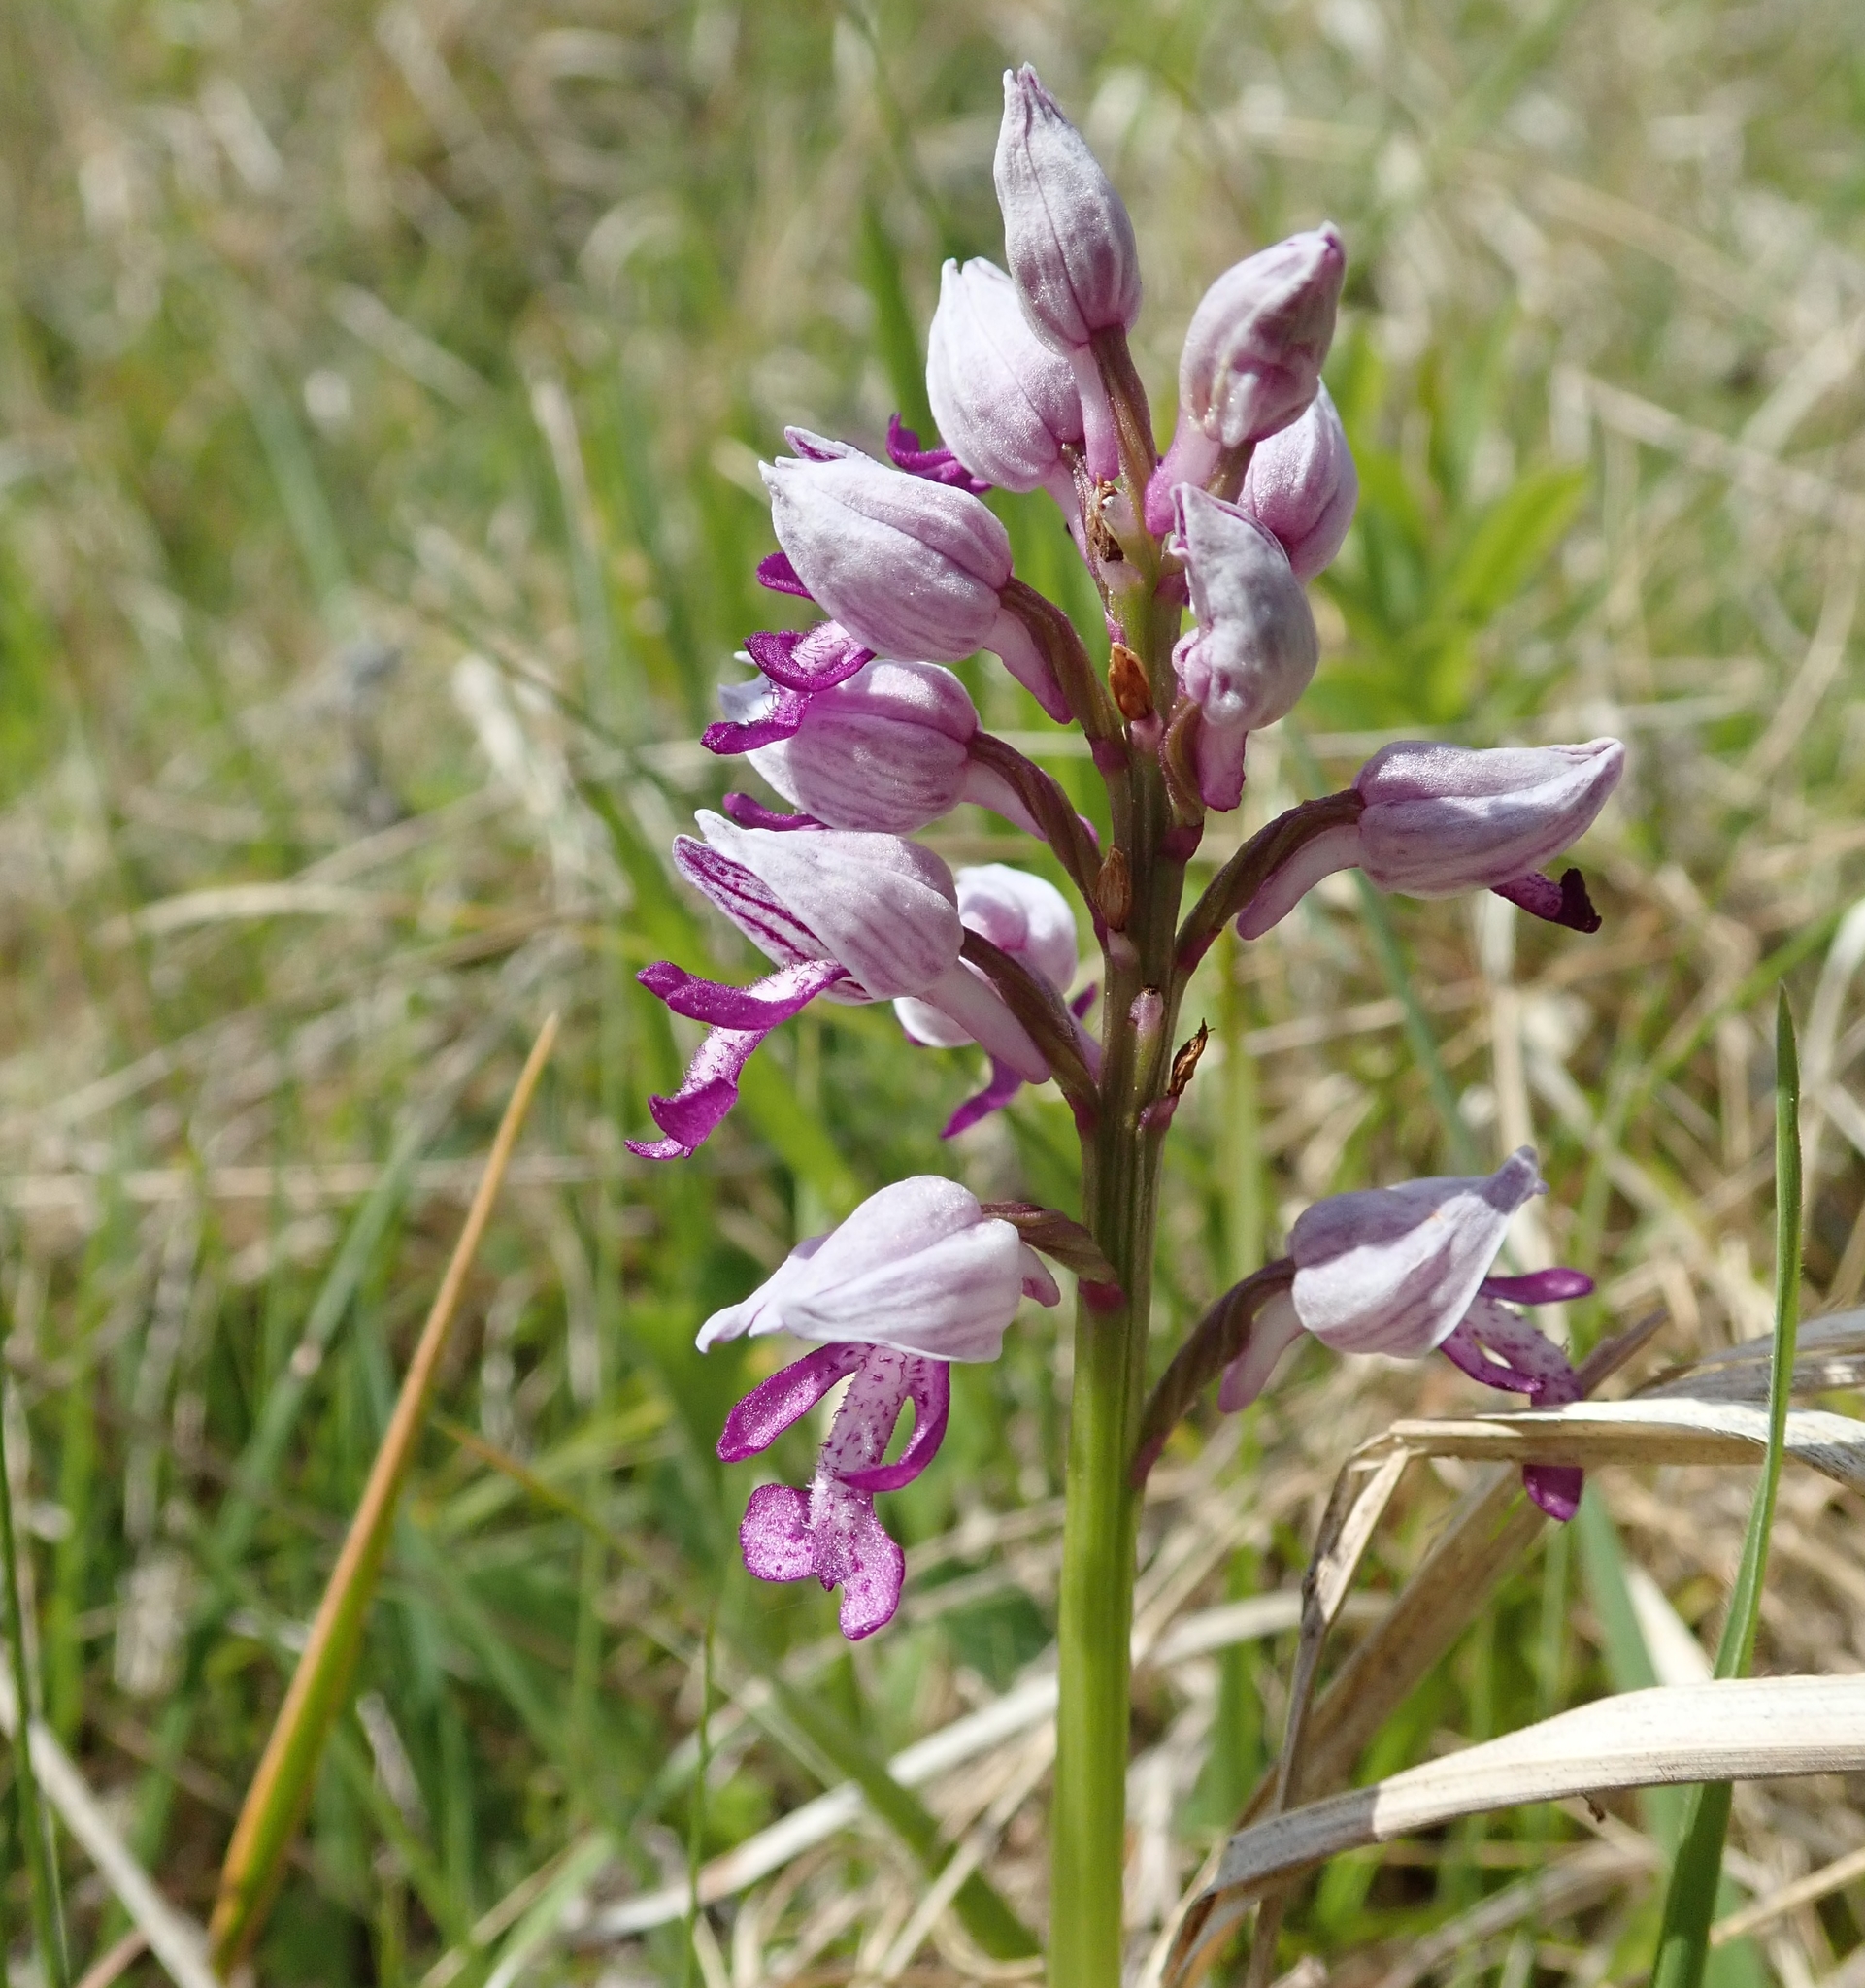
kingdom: Plantae
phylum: Tracheophyta
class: Liliopsida
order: Asparagales
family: Orchidaceae
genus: Orchis
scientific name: Orchis militaris
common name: Military orchid
